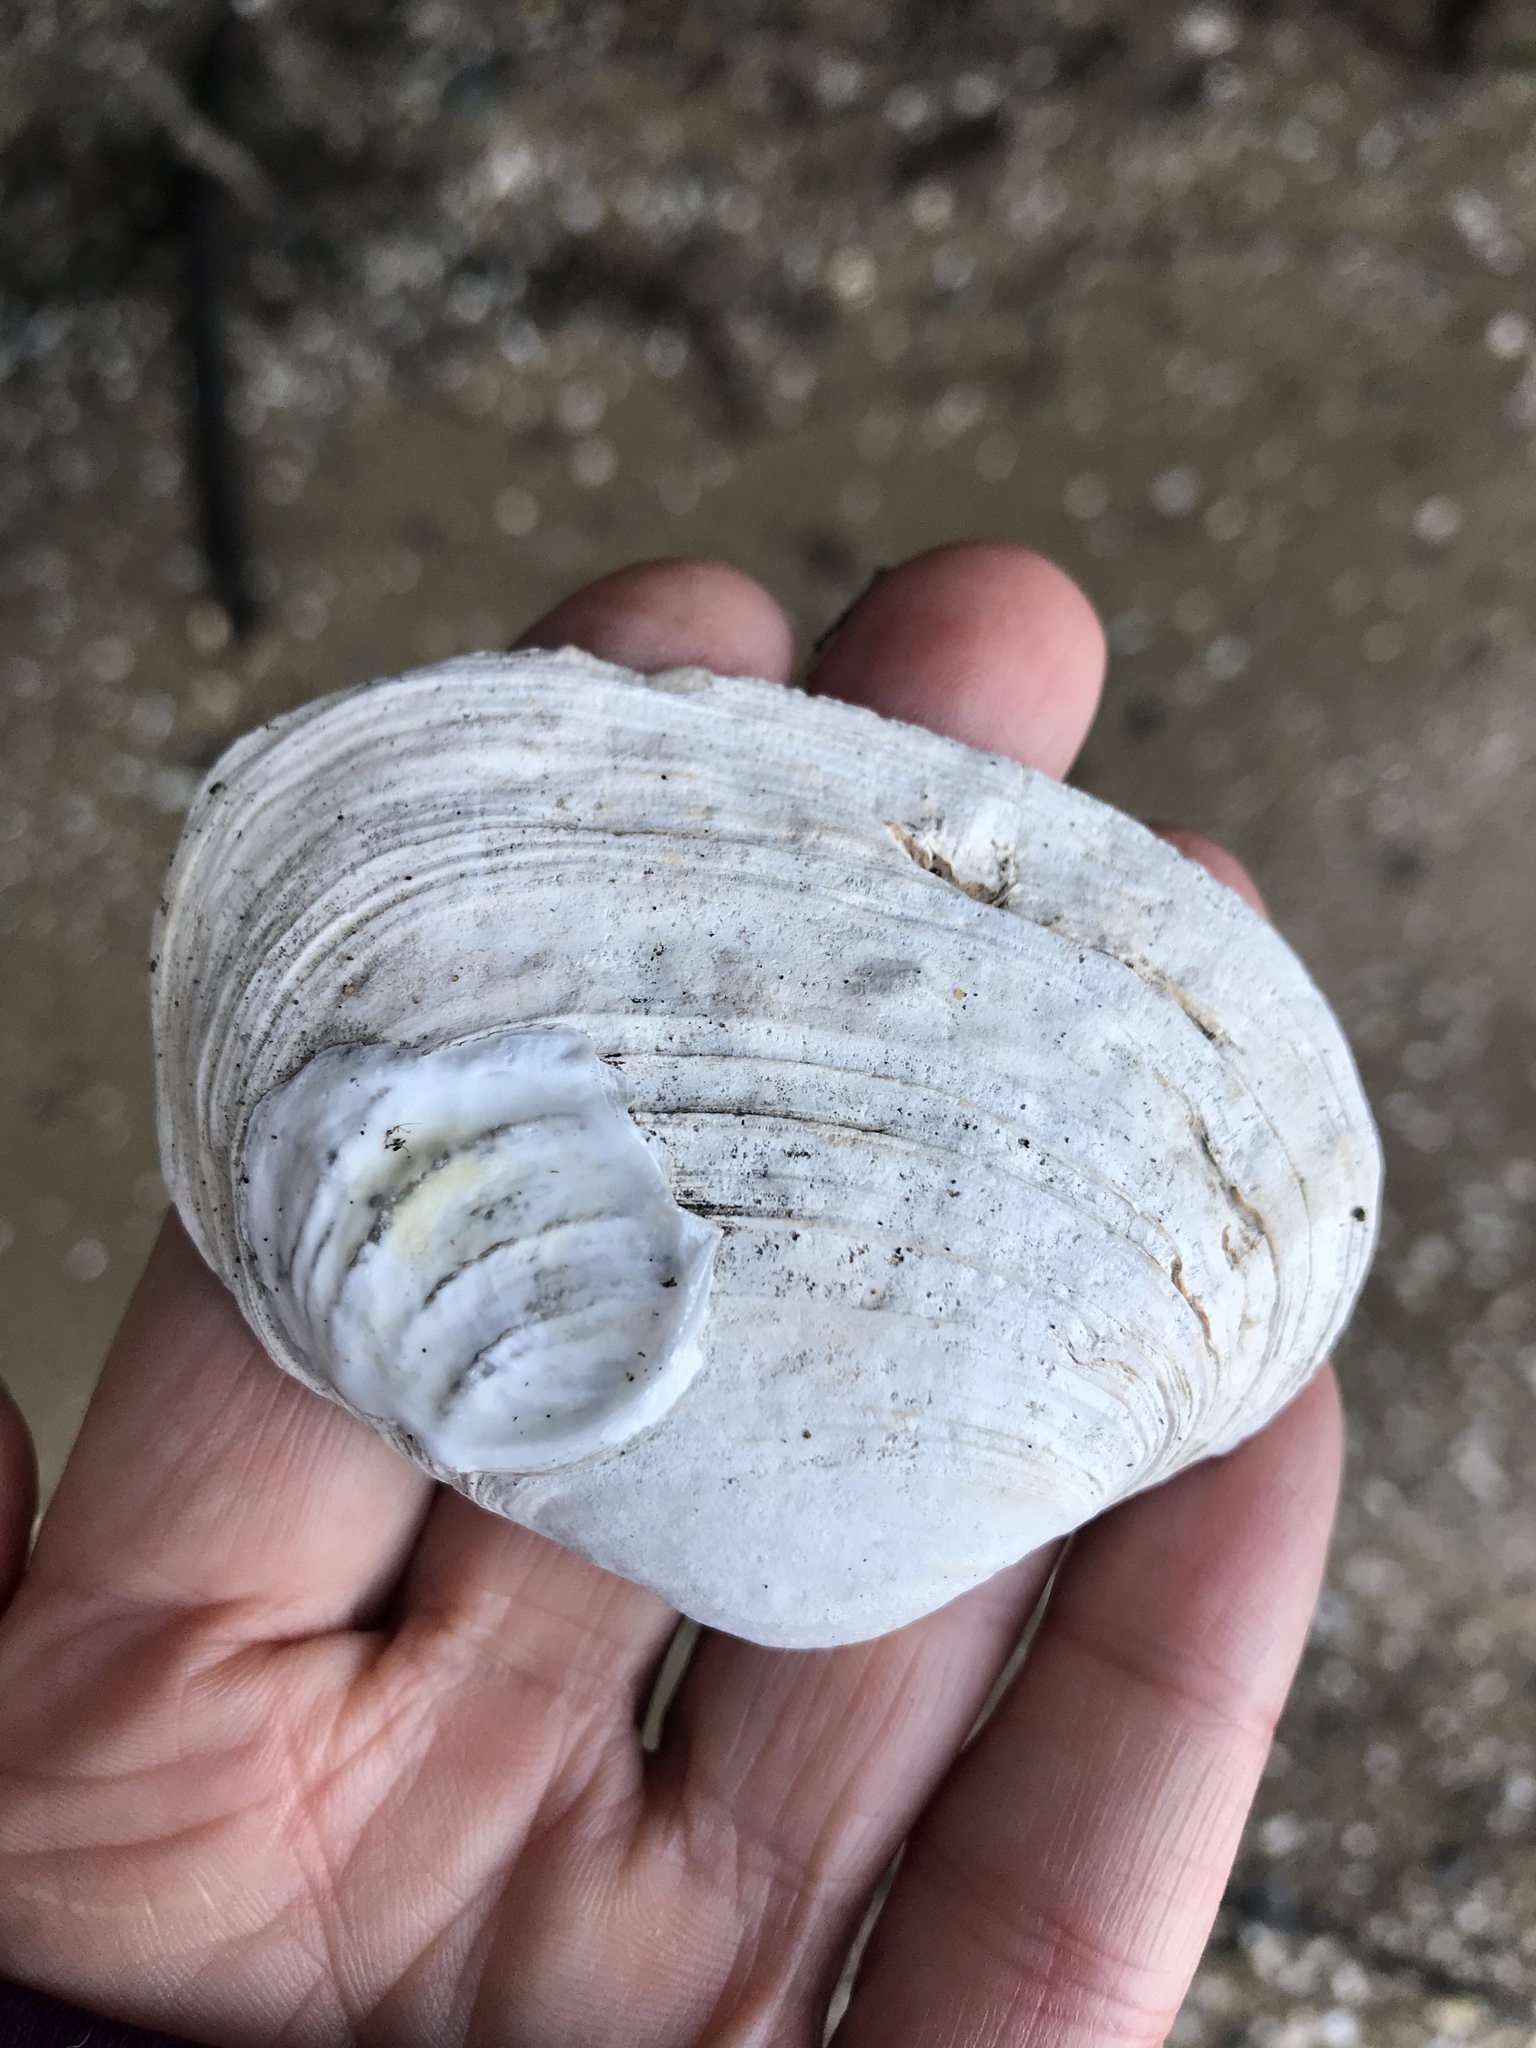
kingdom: Animalia
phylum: Mollusca
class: Bivalvia
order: Venerida
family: Veneridae
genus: Saxidomus
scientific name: Saxidomus nuttalli
